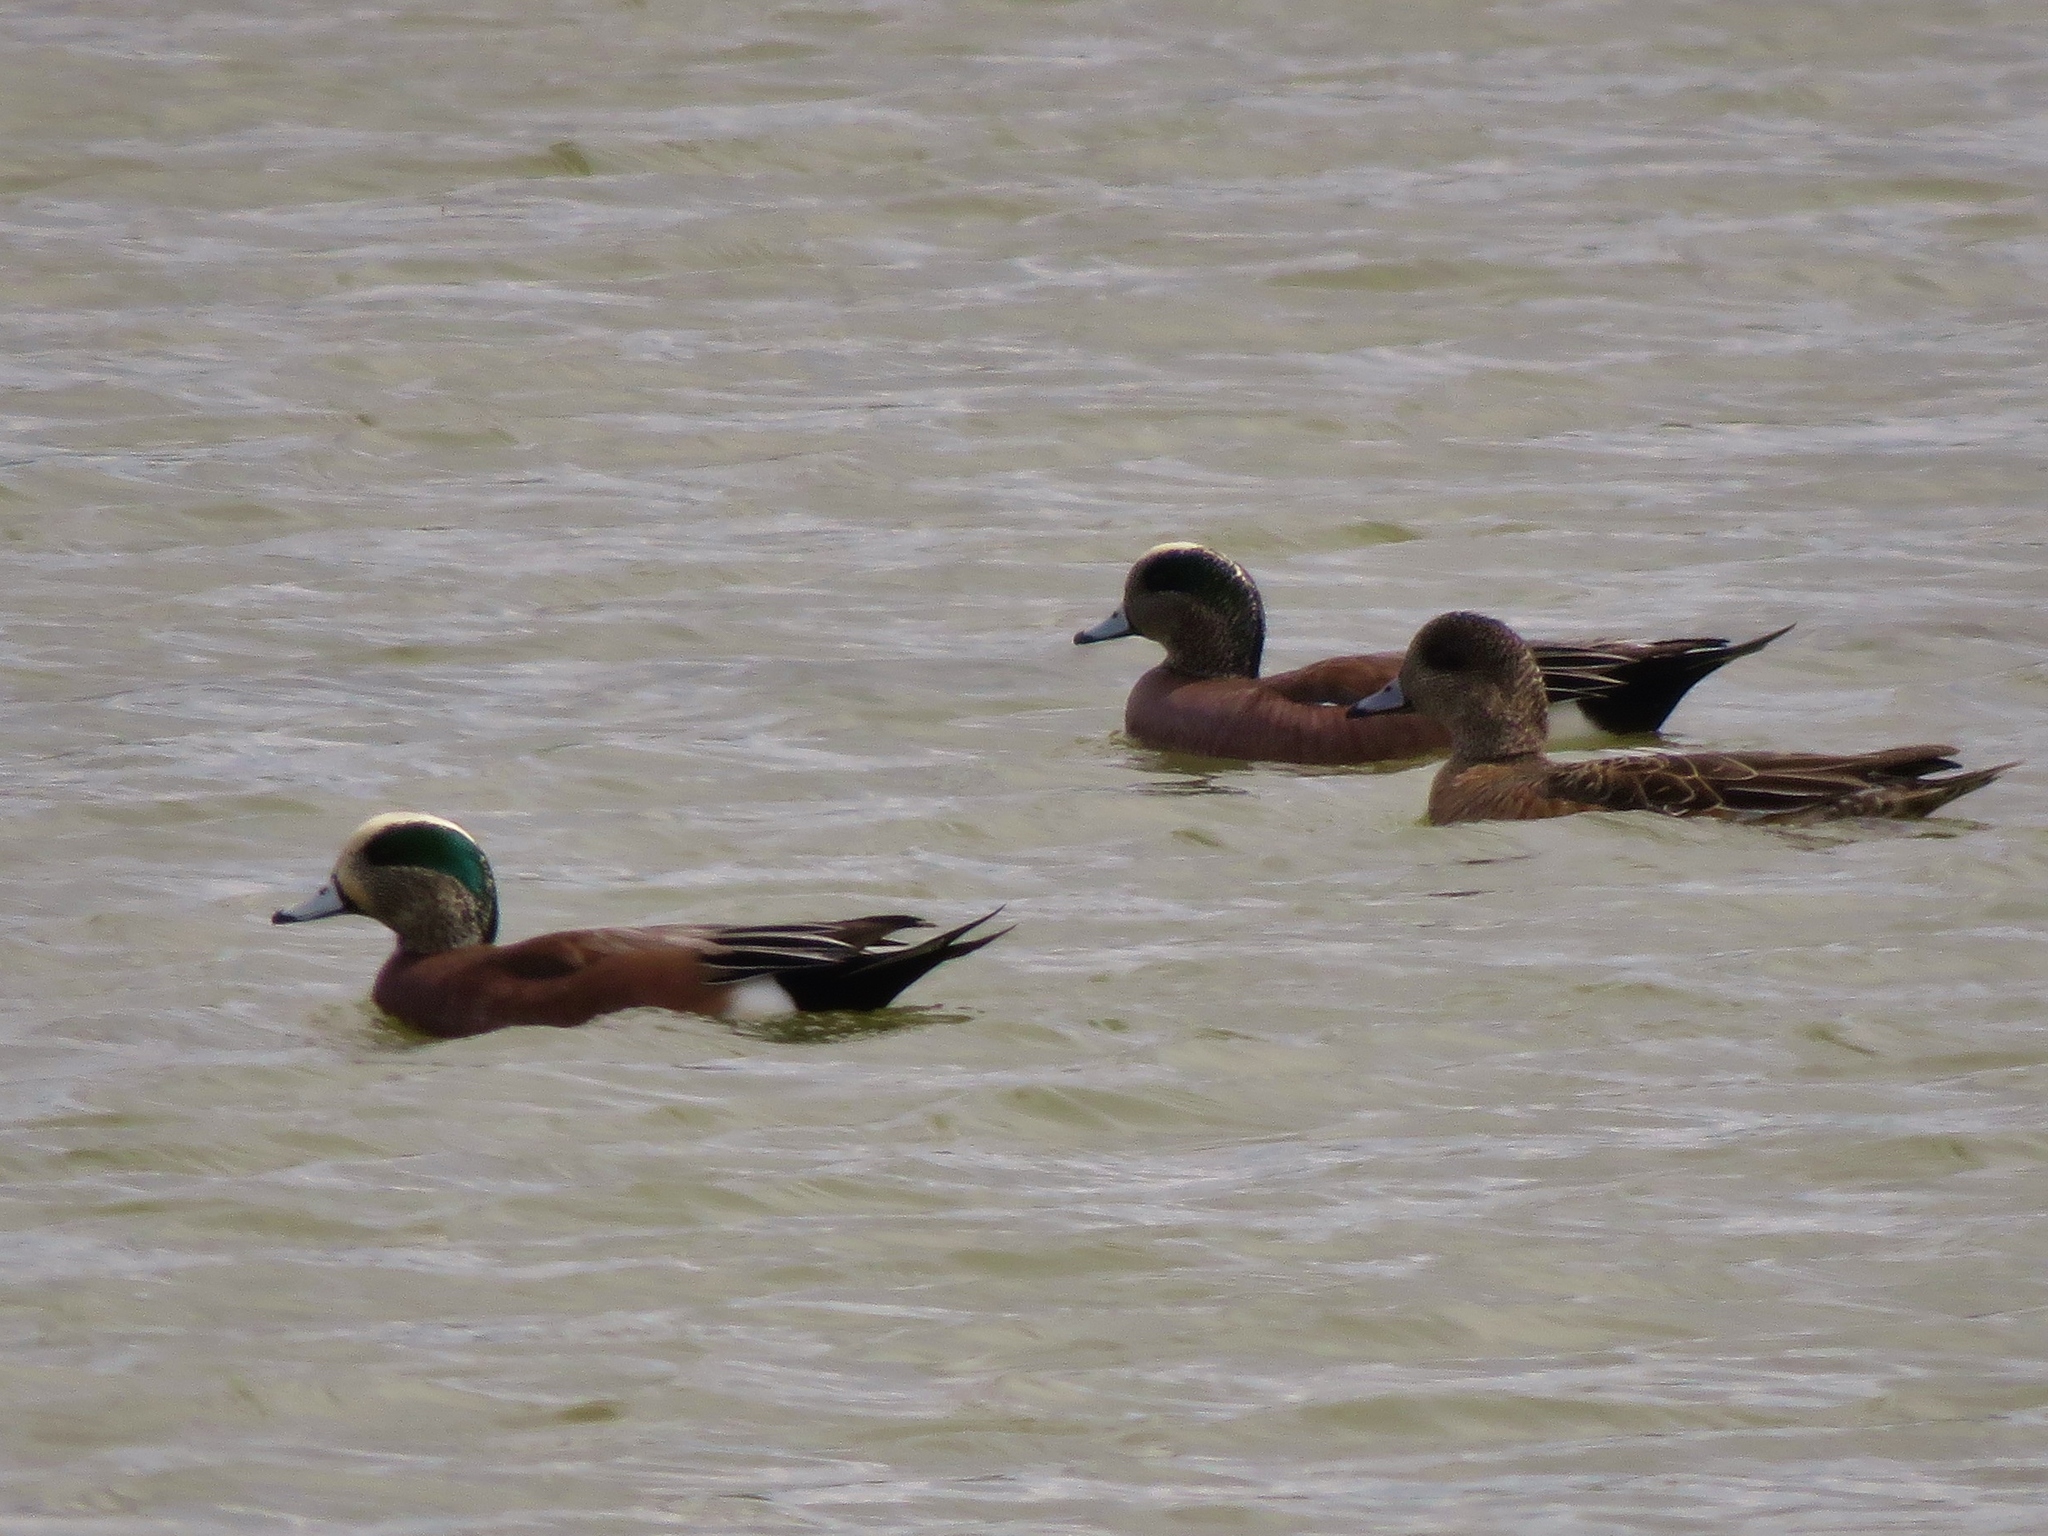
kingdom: Animalia
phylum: Chordata
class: Aves
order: Anseriformes
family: Anatidae
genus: Mareca
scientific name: Mareca americana
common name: American wigeon
